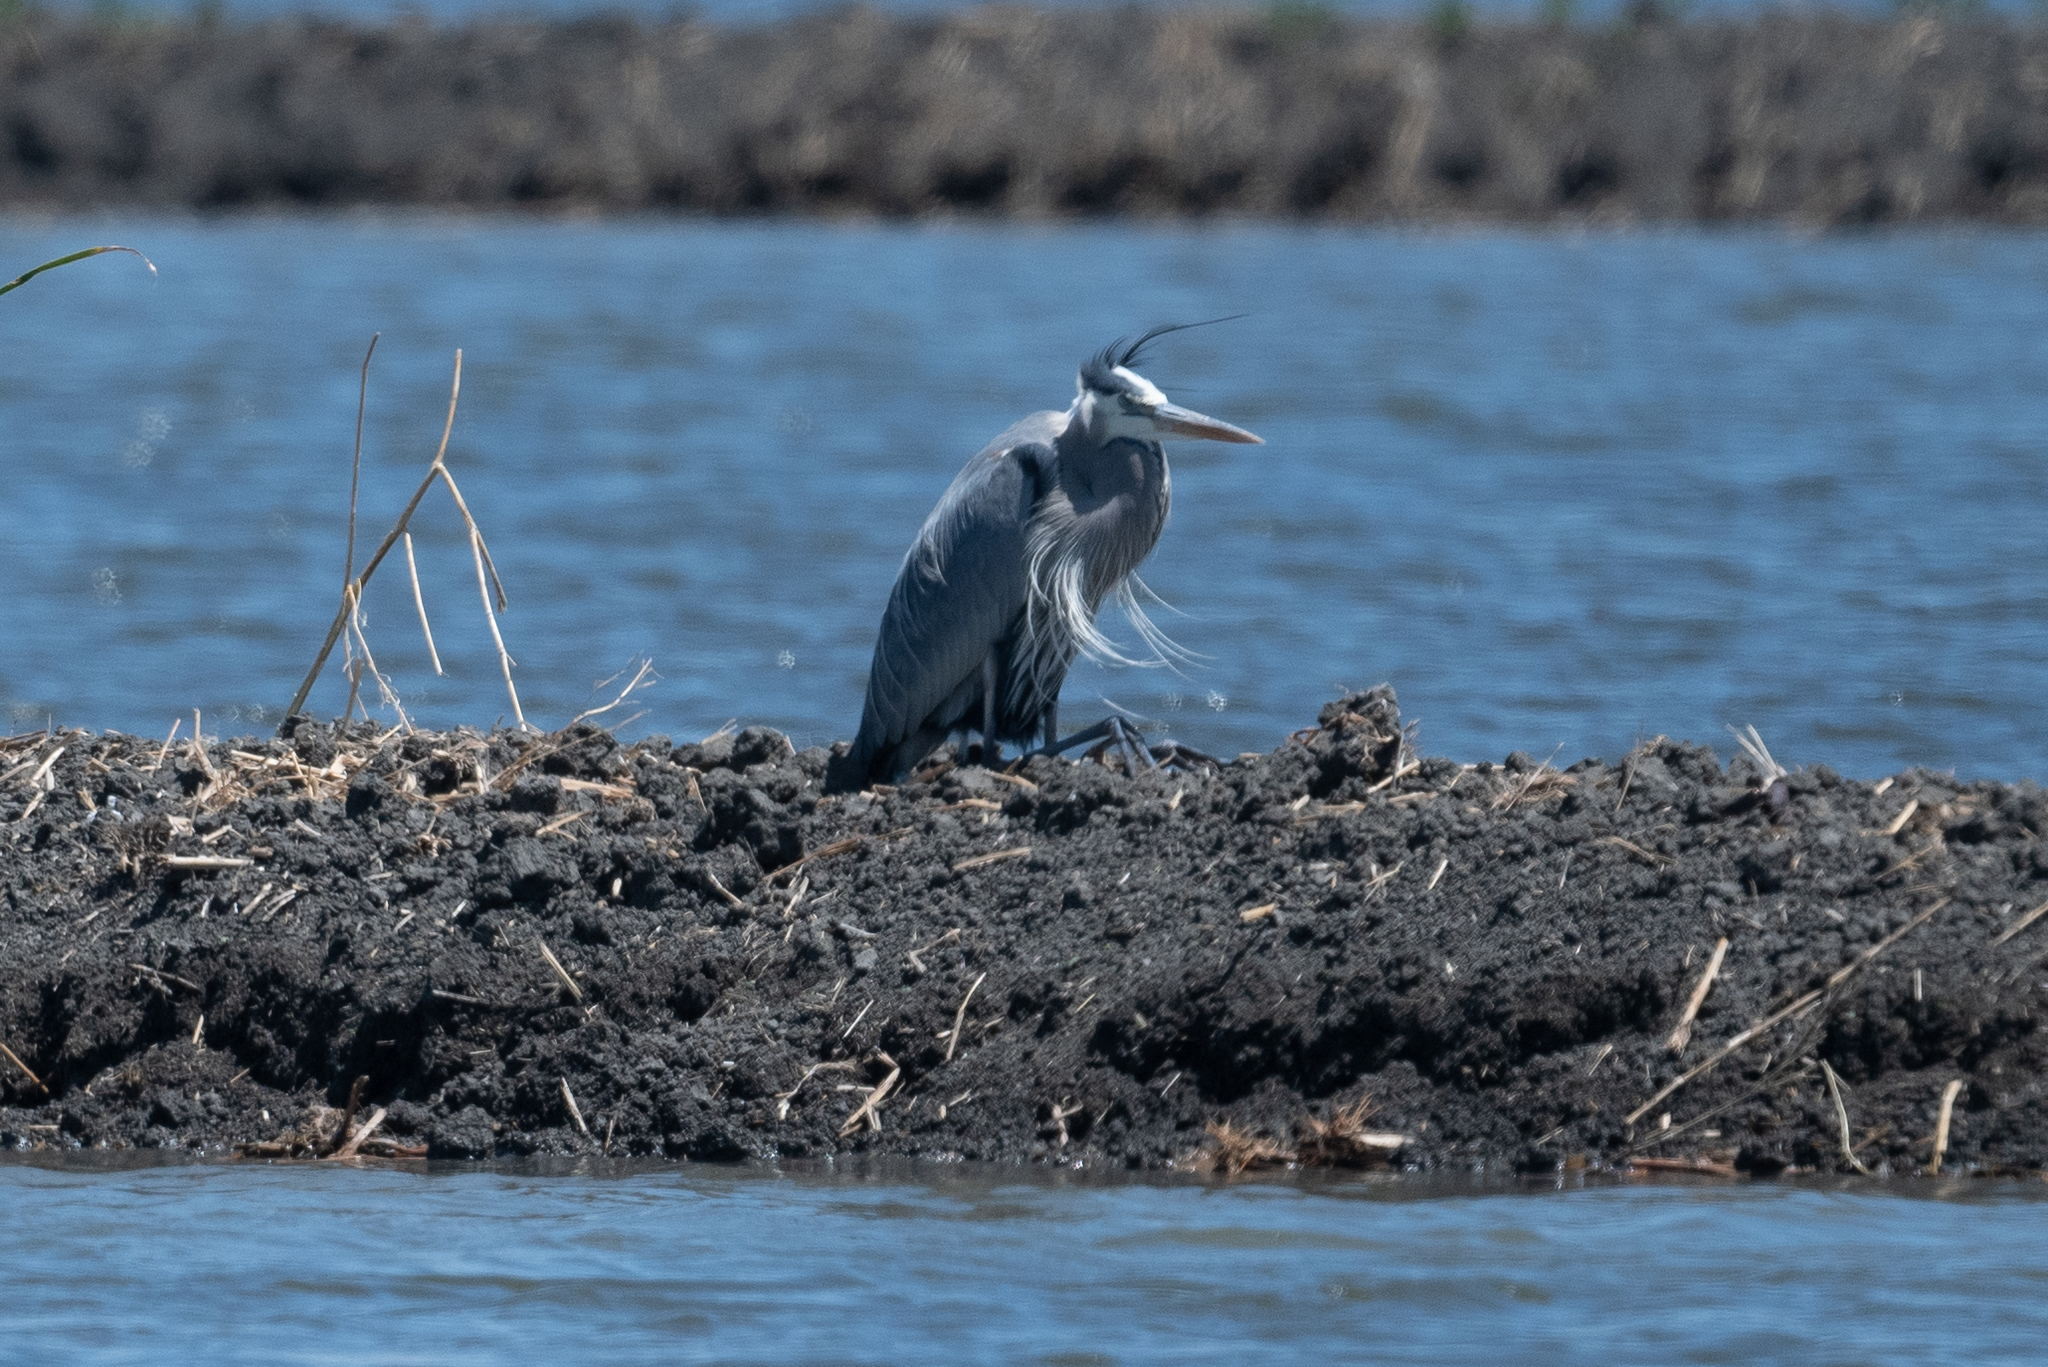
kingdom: Animalia
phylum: Chordata
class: Aves
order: Pelecaniformes
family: Ardeidae
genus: Ardea
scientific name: Ardea herodias
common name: Great blue heron
